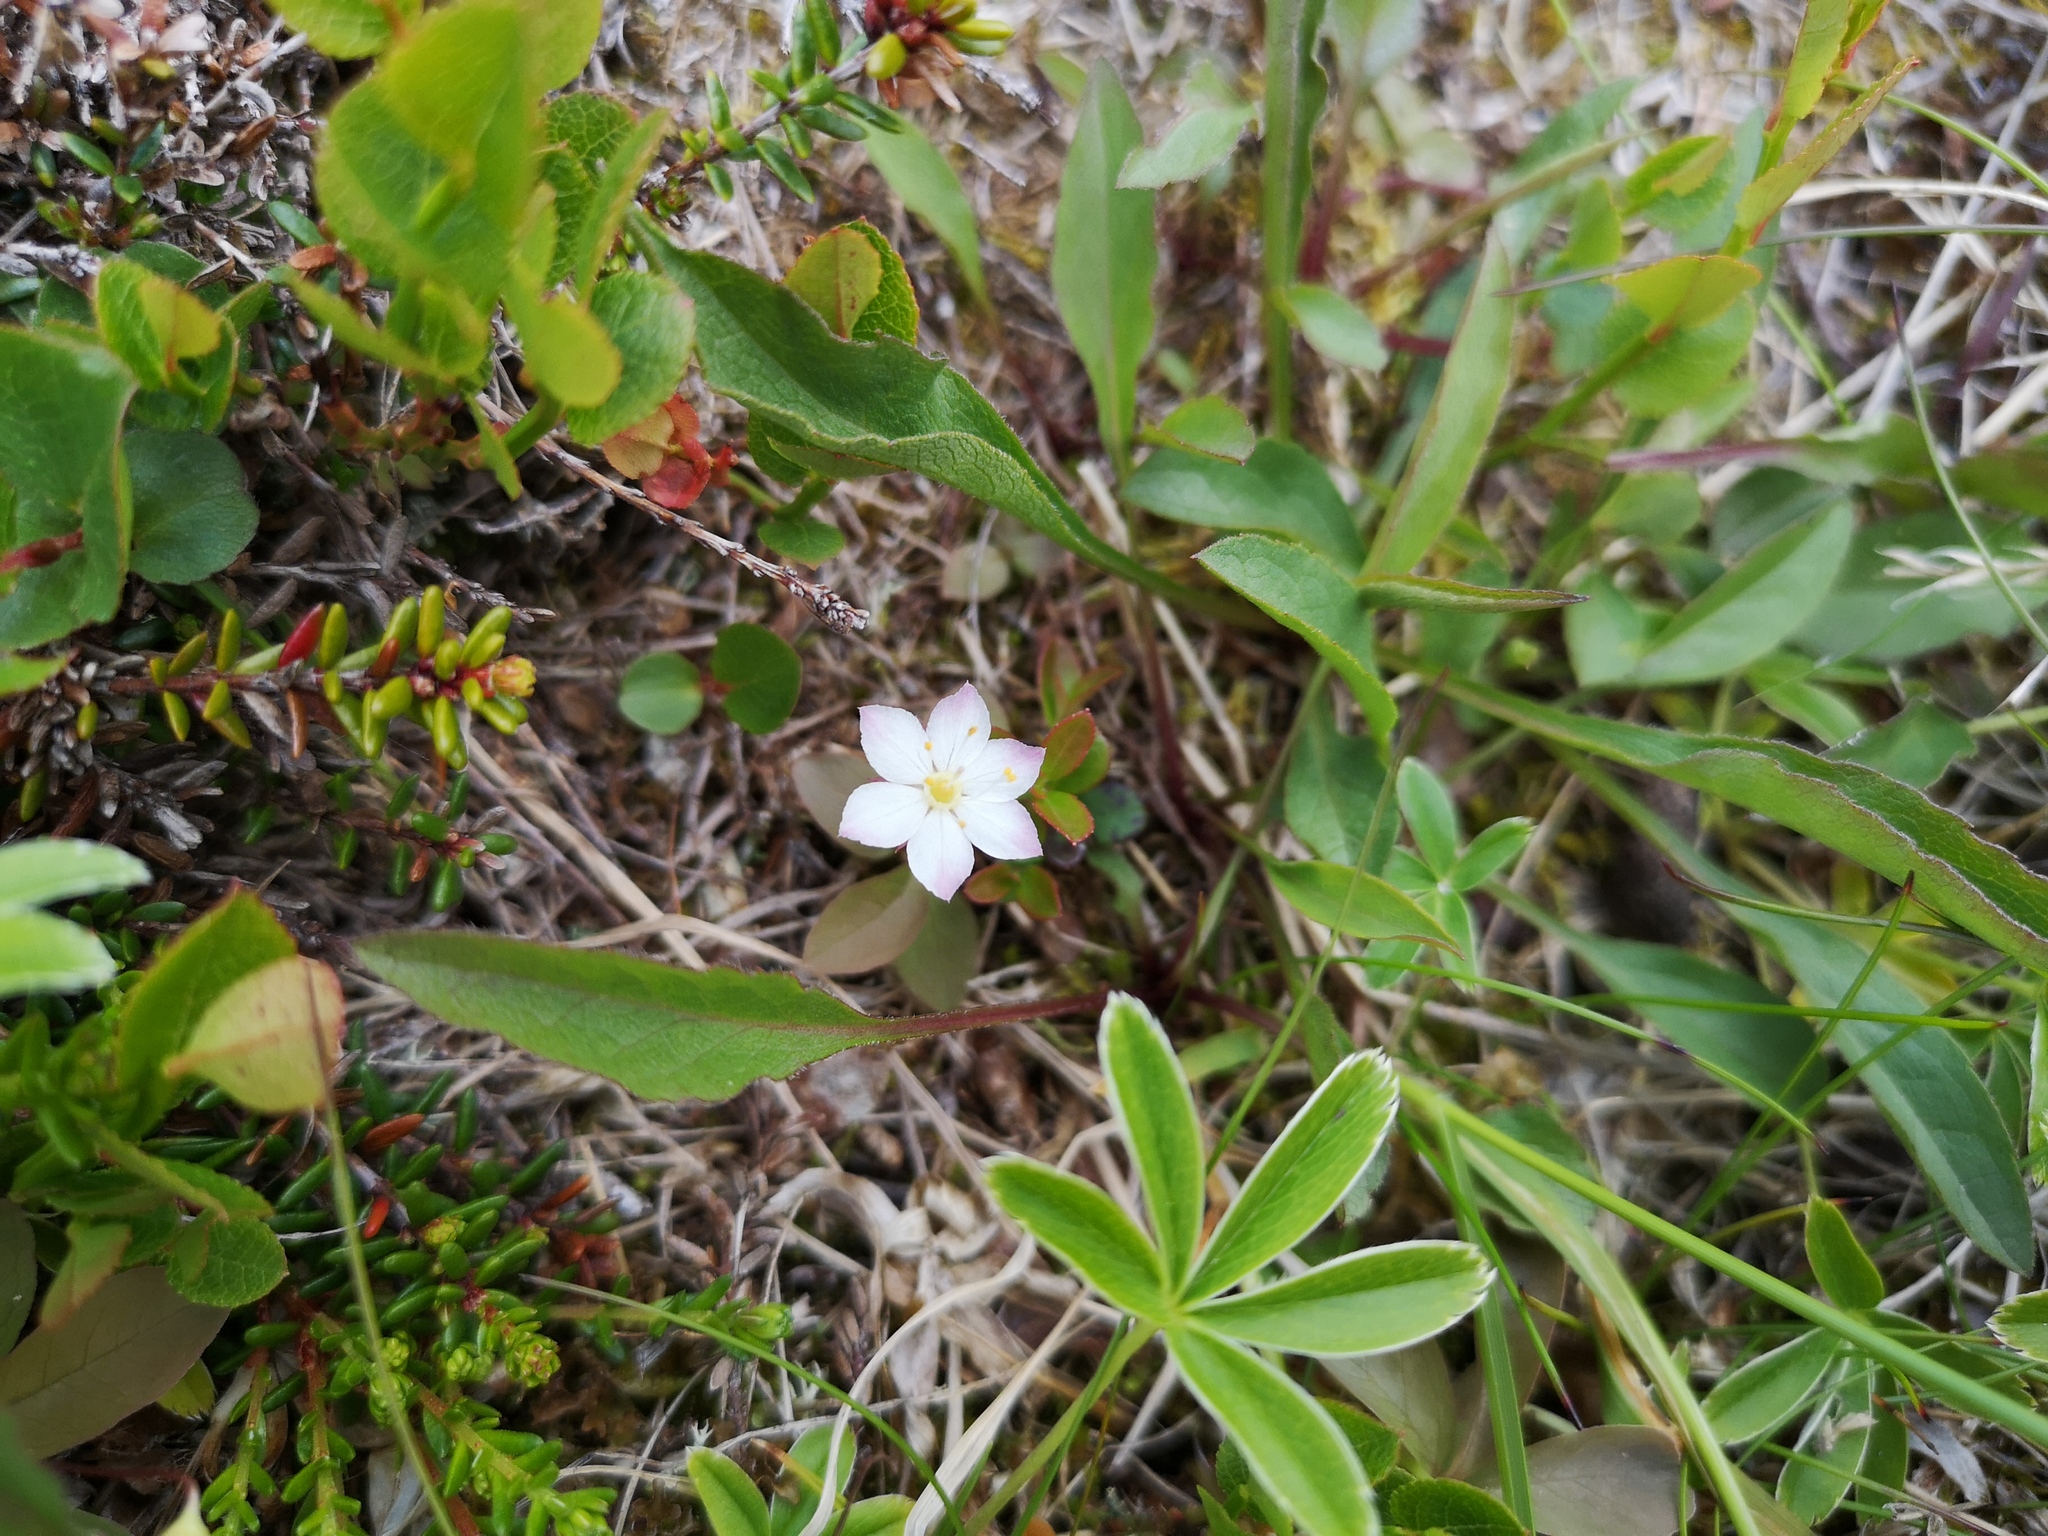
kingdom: Plantae
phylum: Tracheophyta
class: Magnoliopsida
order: Ericales
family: Primulaceae
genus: Lysimachia
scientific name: Lysimachia europaea
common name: Arctic starflower
